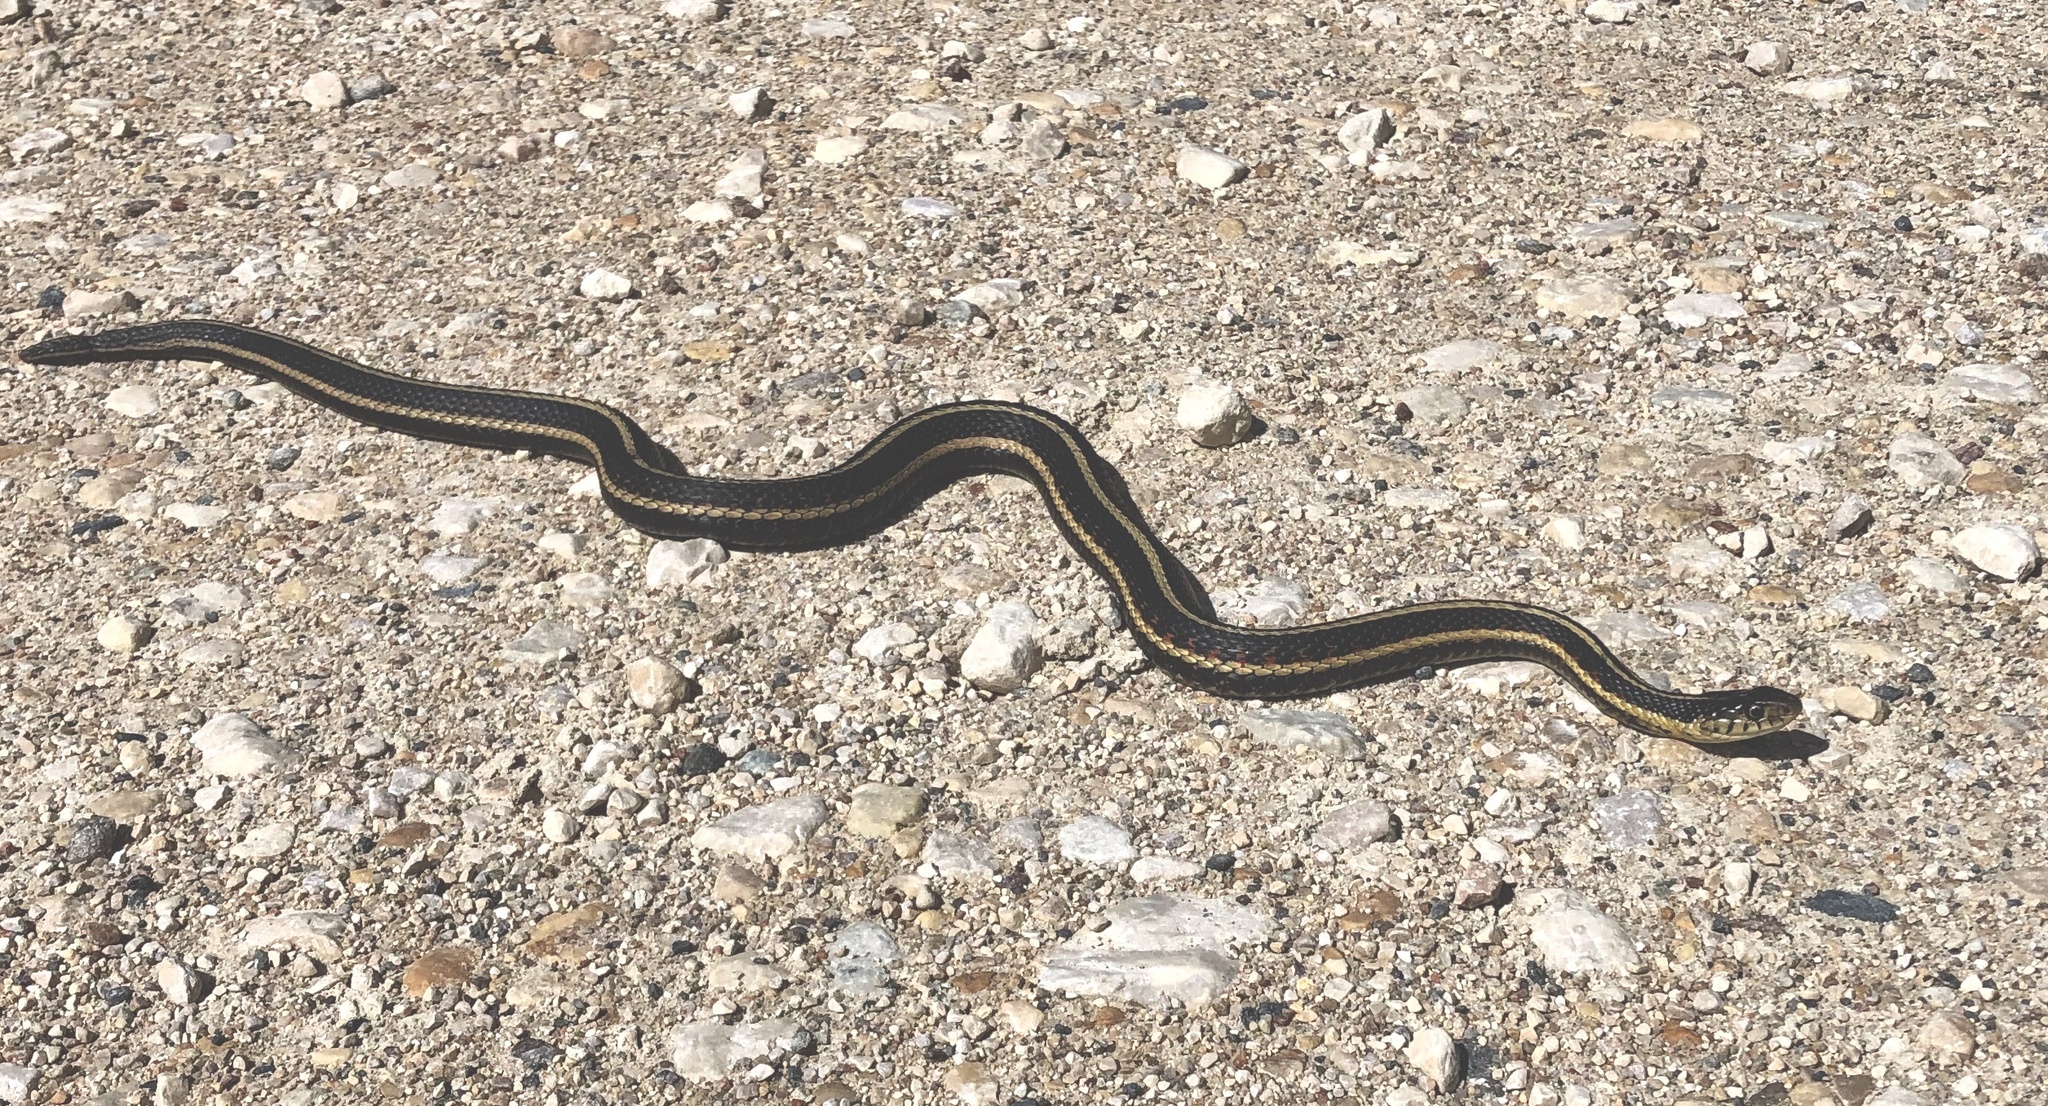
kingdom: Animalia
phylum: Chordata
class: Squamata
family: Colubridae
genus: Thamnophis
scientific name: Thamnophis sirtalis
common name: Common garter snake
